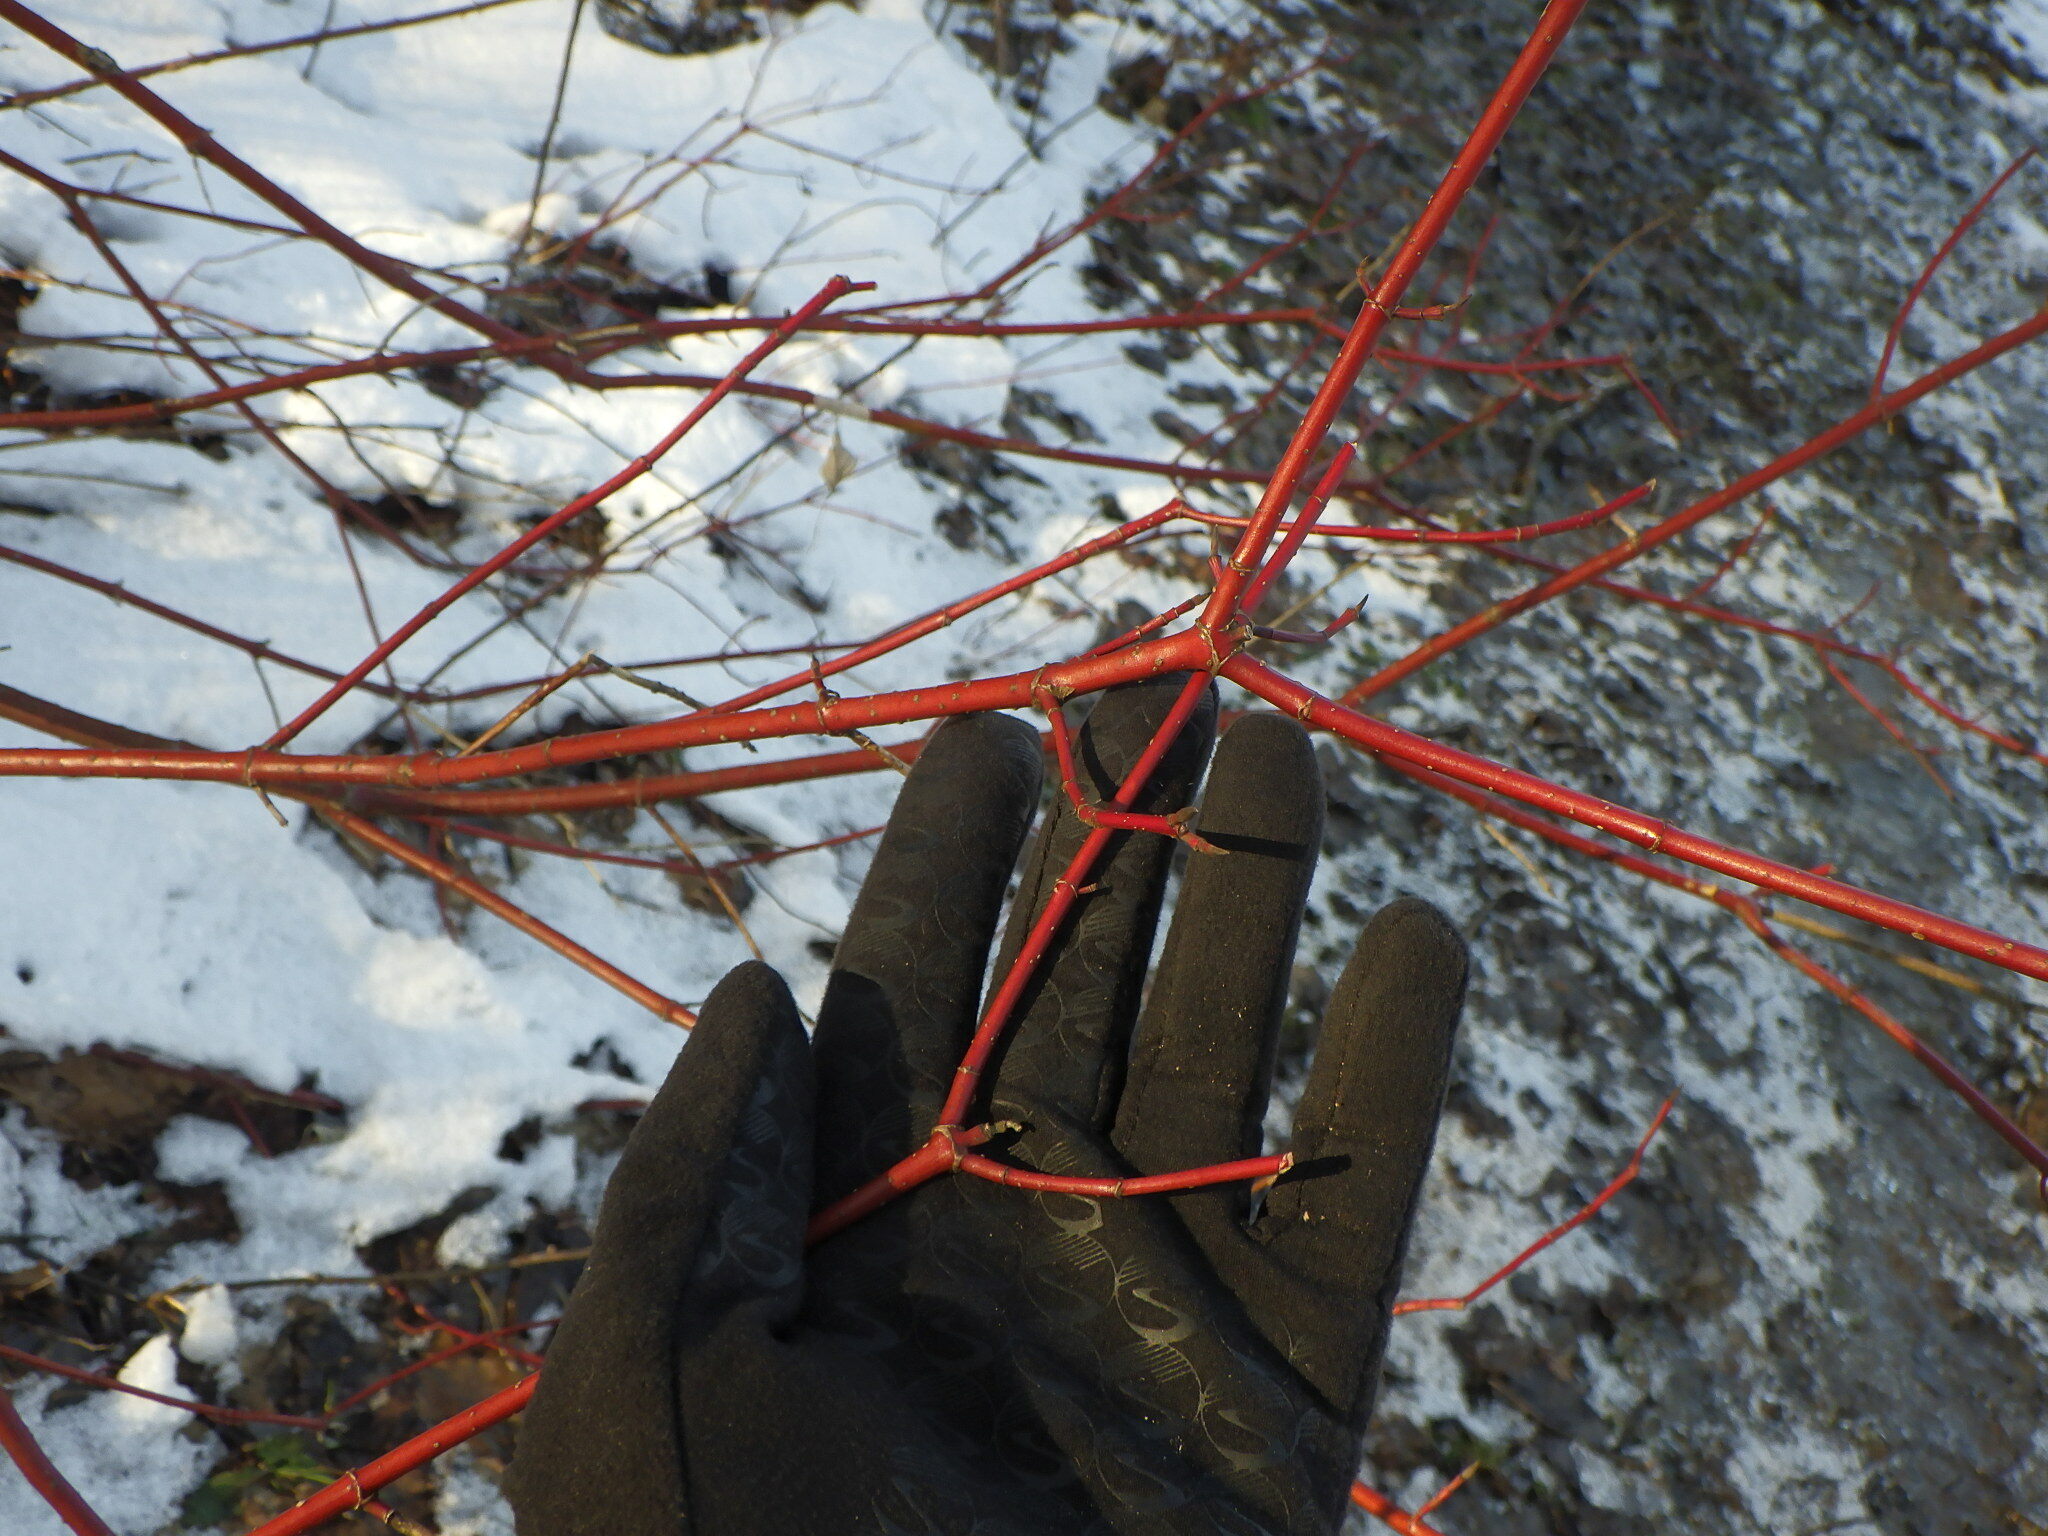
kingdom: Plantae
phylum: Tracheophyta
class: Magnoliopsida
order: Cornales
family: Cornaceae
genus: Cornus
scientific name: Cornus sericea
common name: Red-osier dogwood
